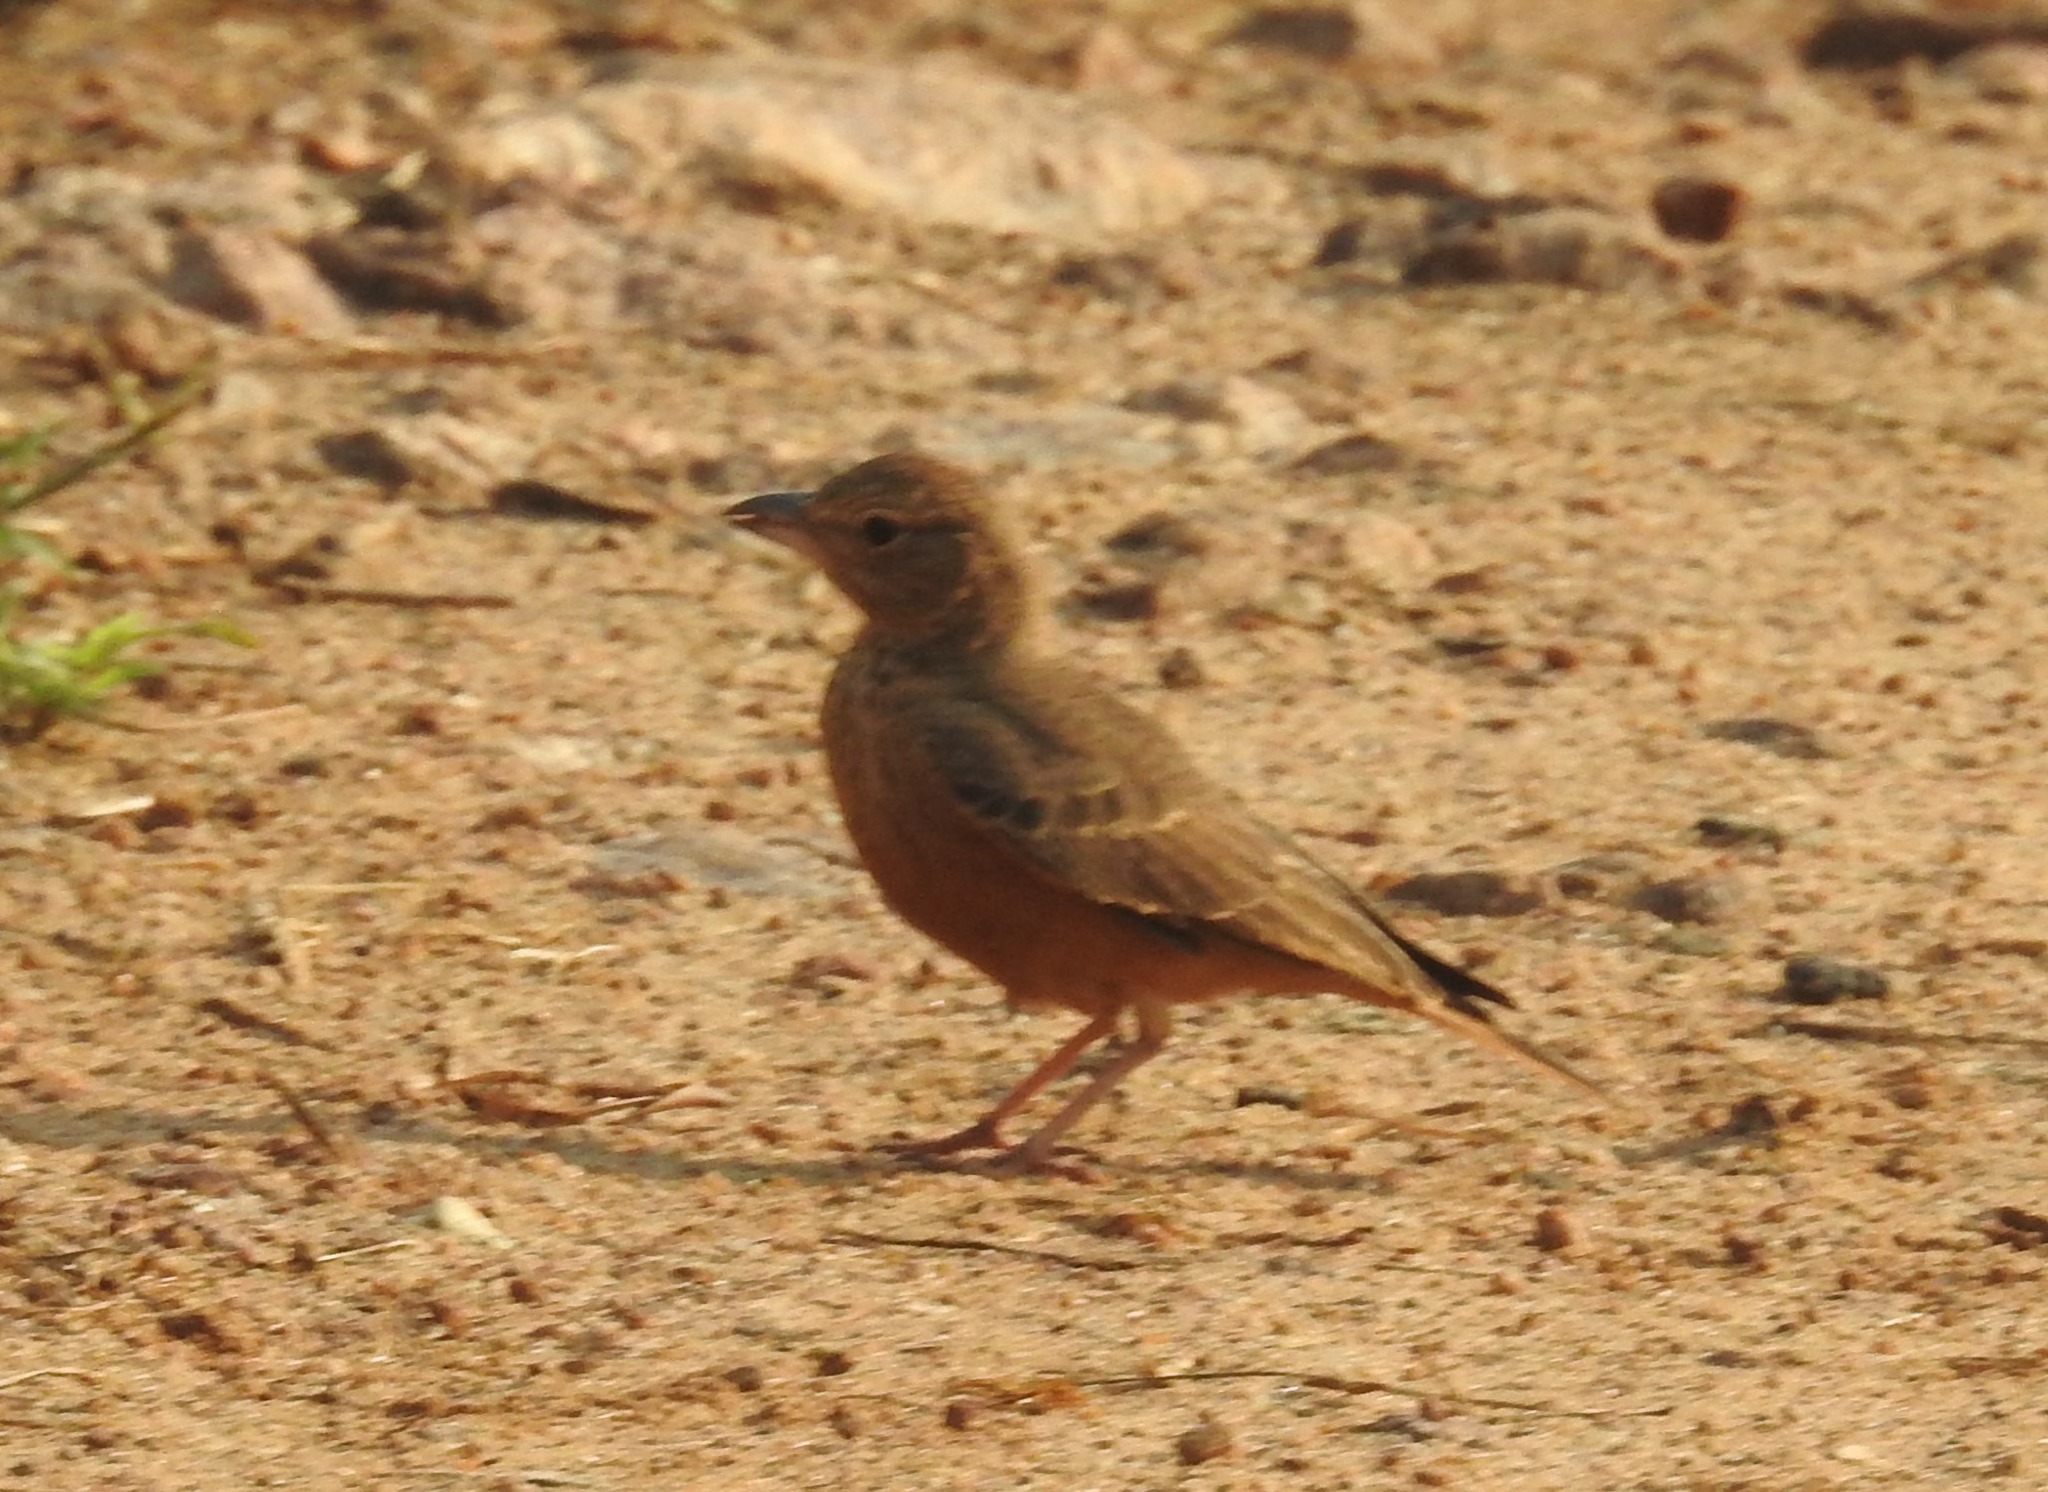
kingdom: Animalia
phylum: Chordata
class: Aves
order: Passeriformes
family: Alaudidae
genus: Ammomanes
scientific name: Ammomanes phoenicura
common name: Rufous-tailed lark
